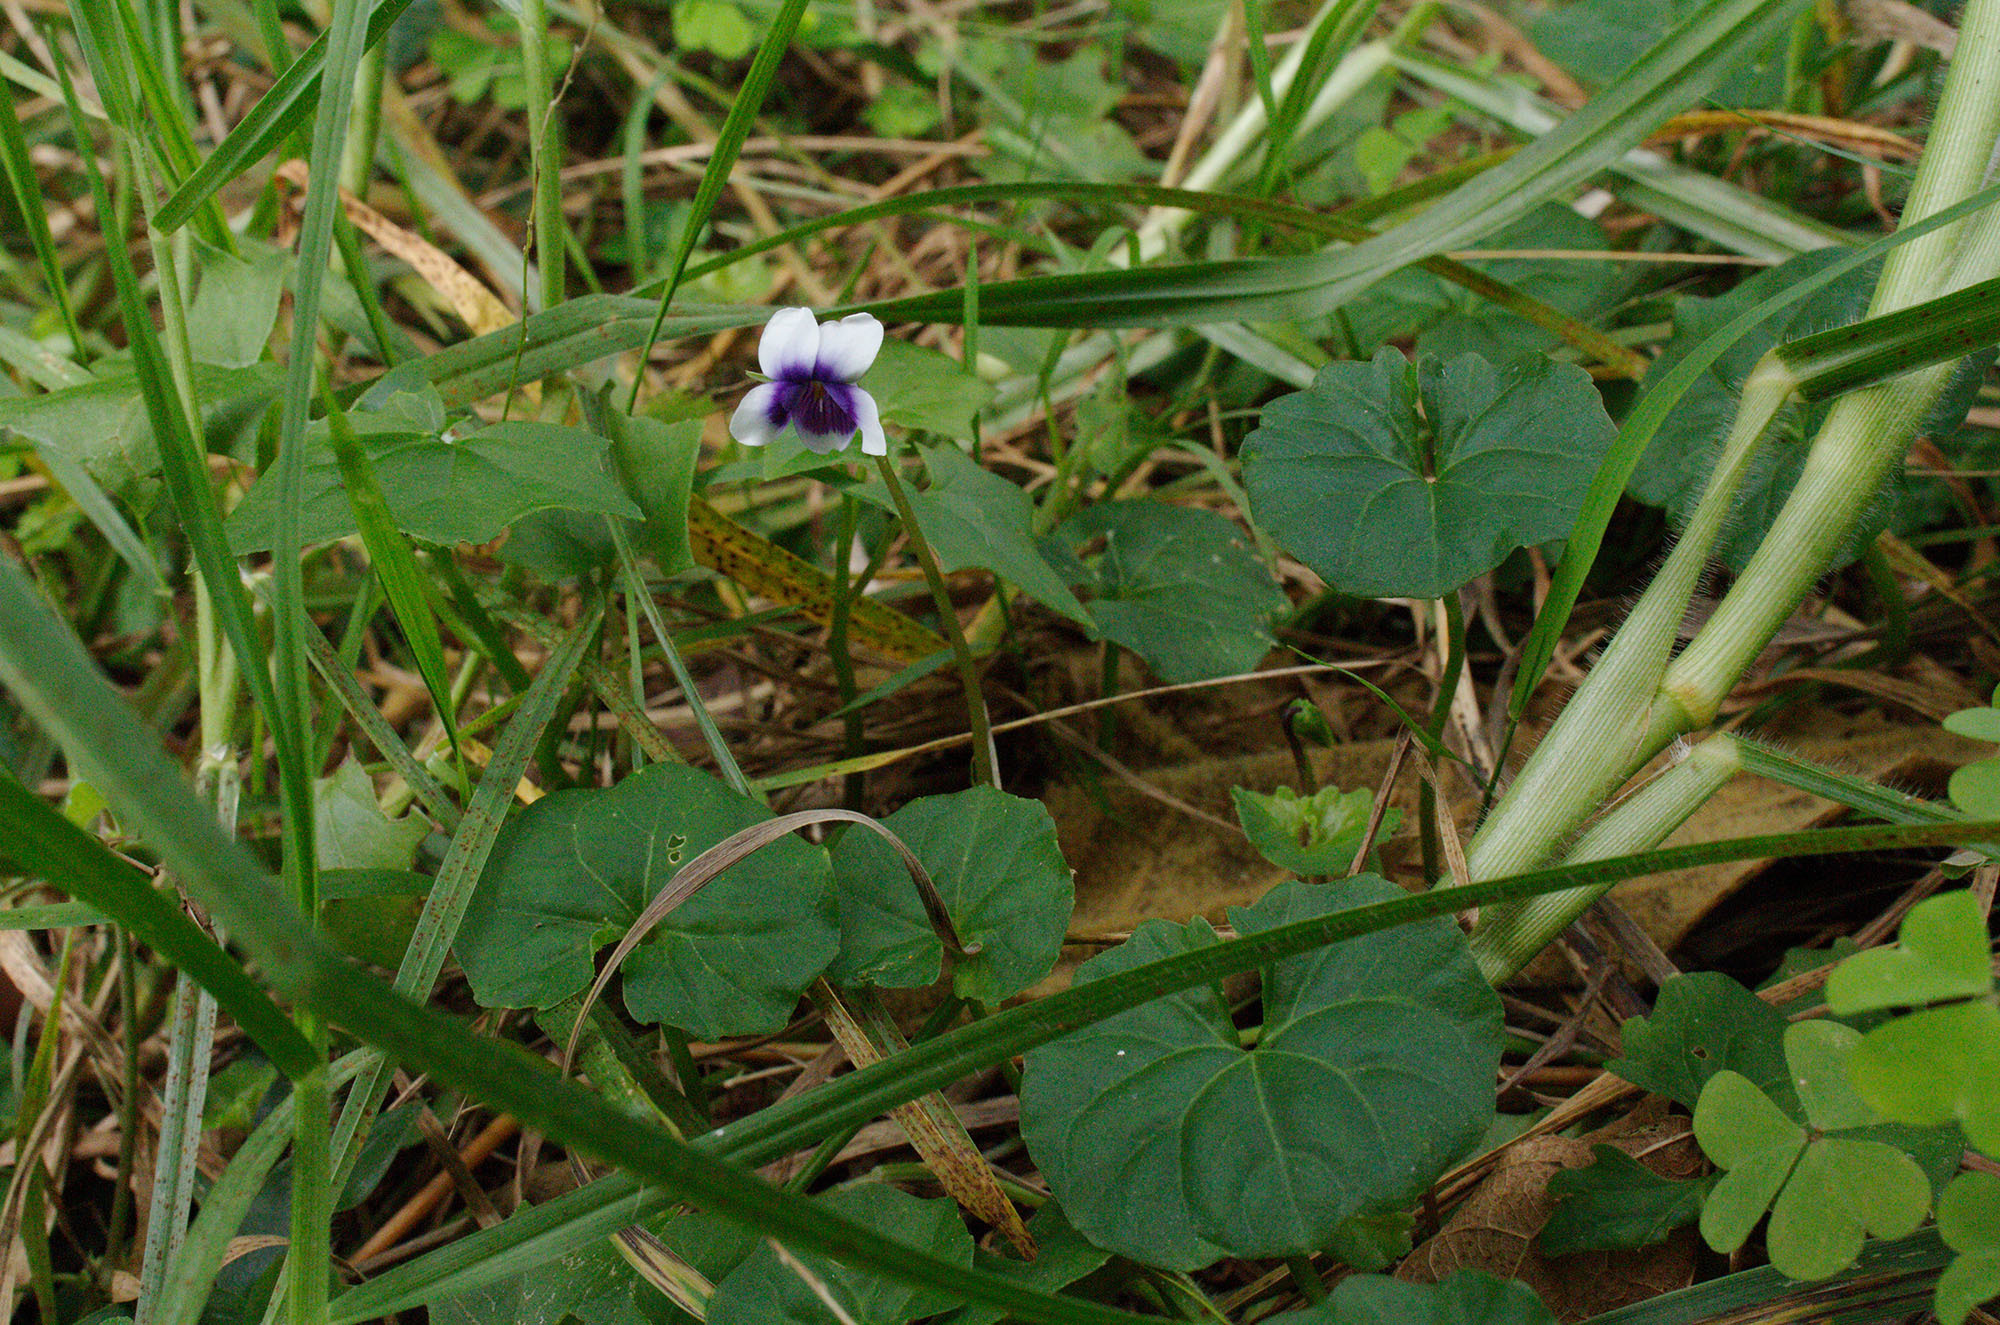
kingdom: Plantae
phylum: Tracheophyta
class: Magnoliopsida
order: Malpighiales
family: Violaceae
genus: Viola
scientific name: Viola banksii
